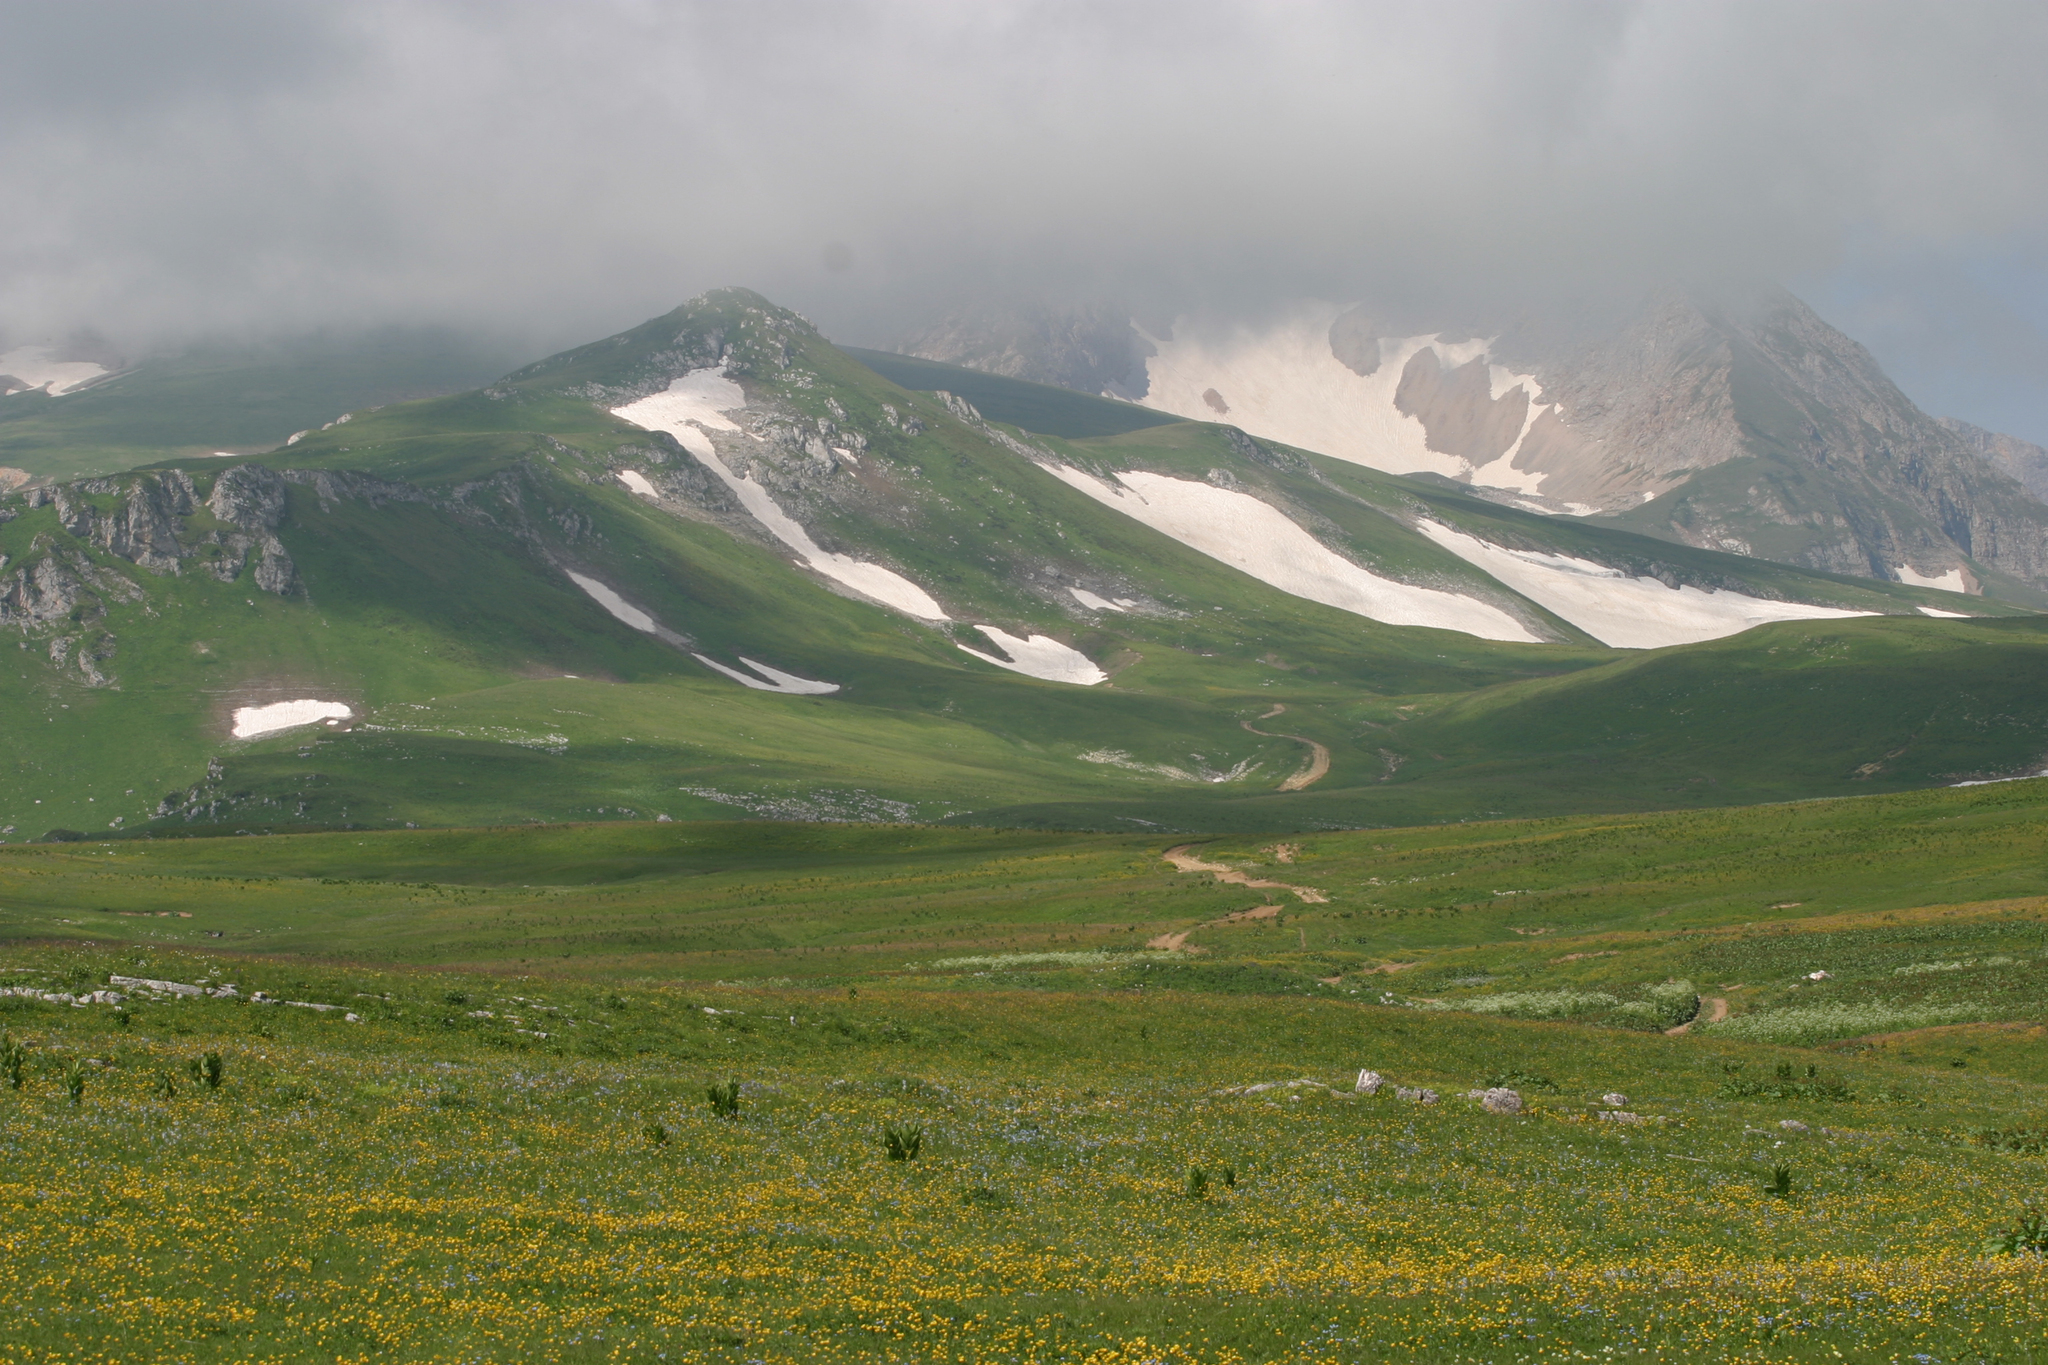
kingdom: Plantae
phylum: Tracheophyta
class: Liliopsida
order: Liliales
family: Melanthiaceae
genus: Veratrum
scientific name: Veratrum lobelianum
